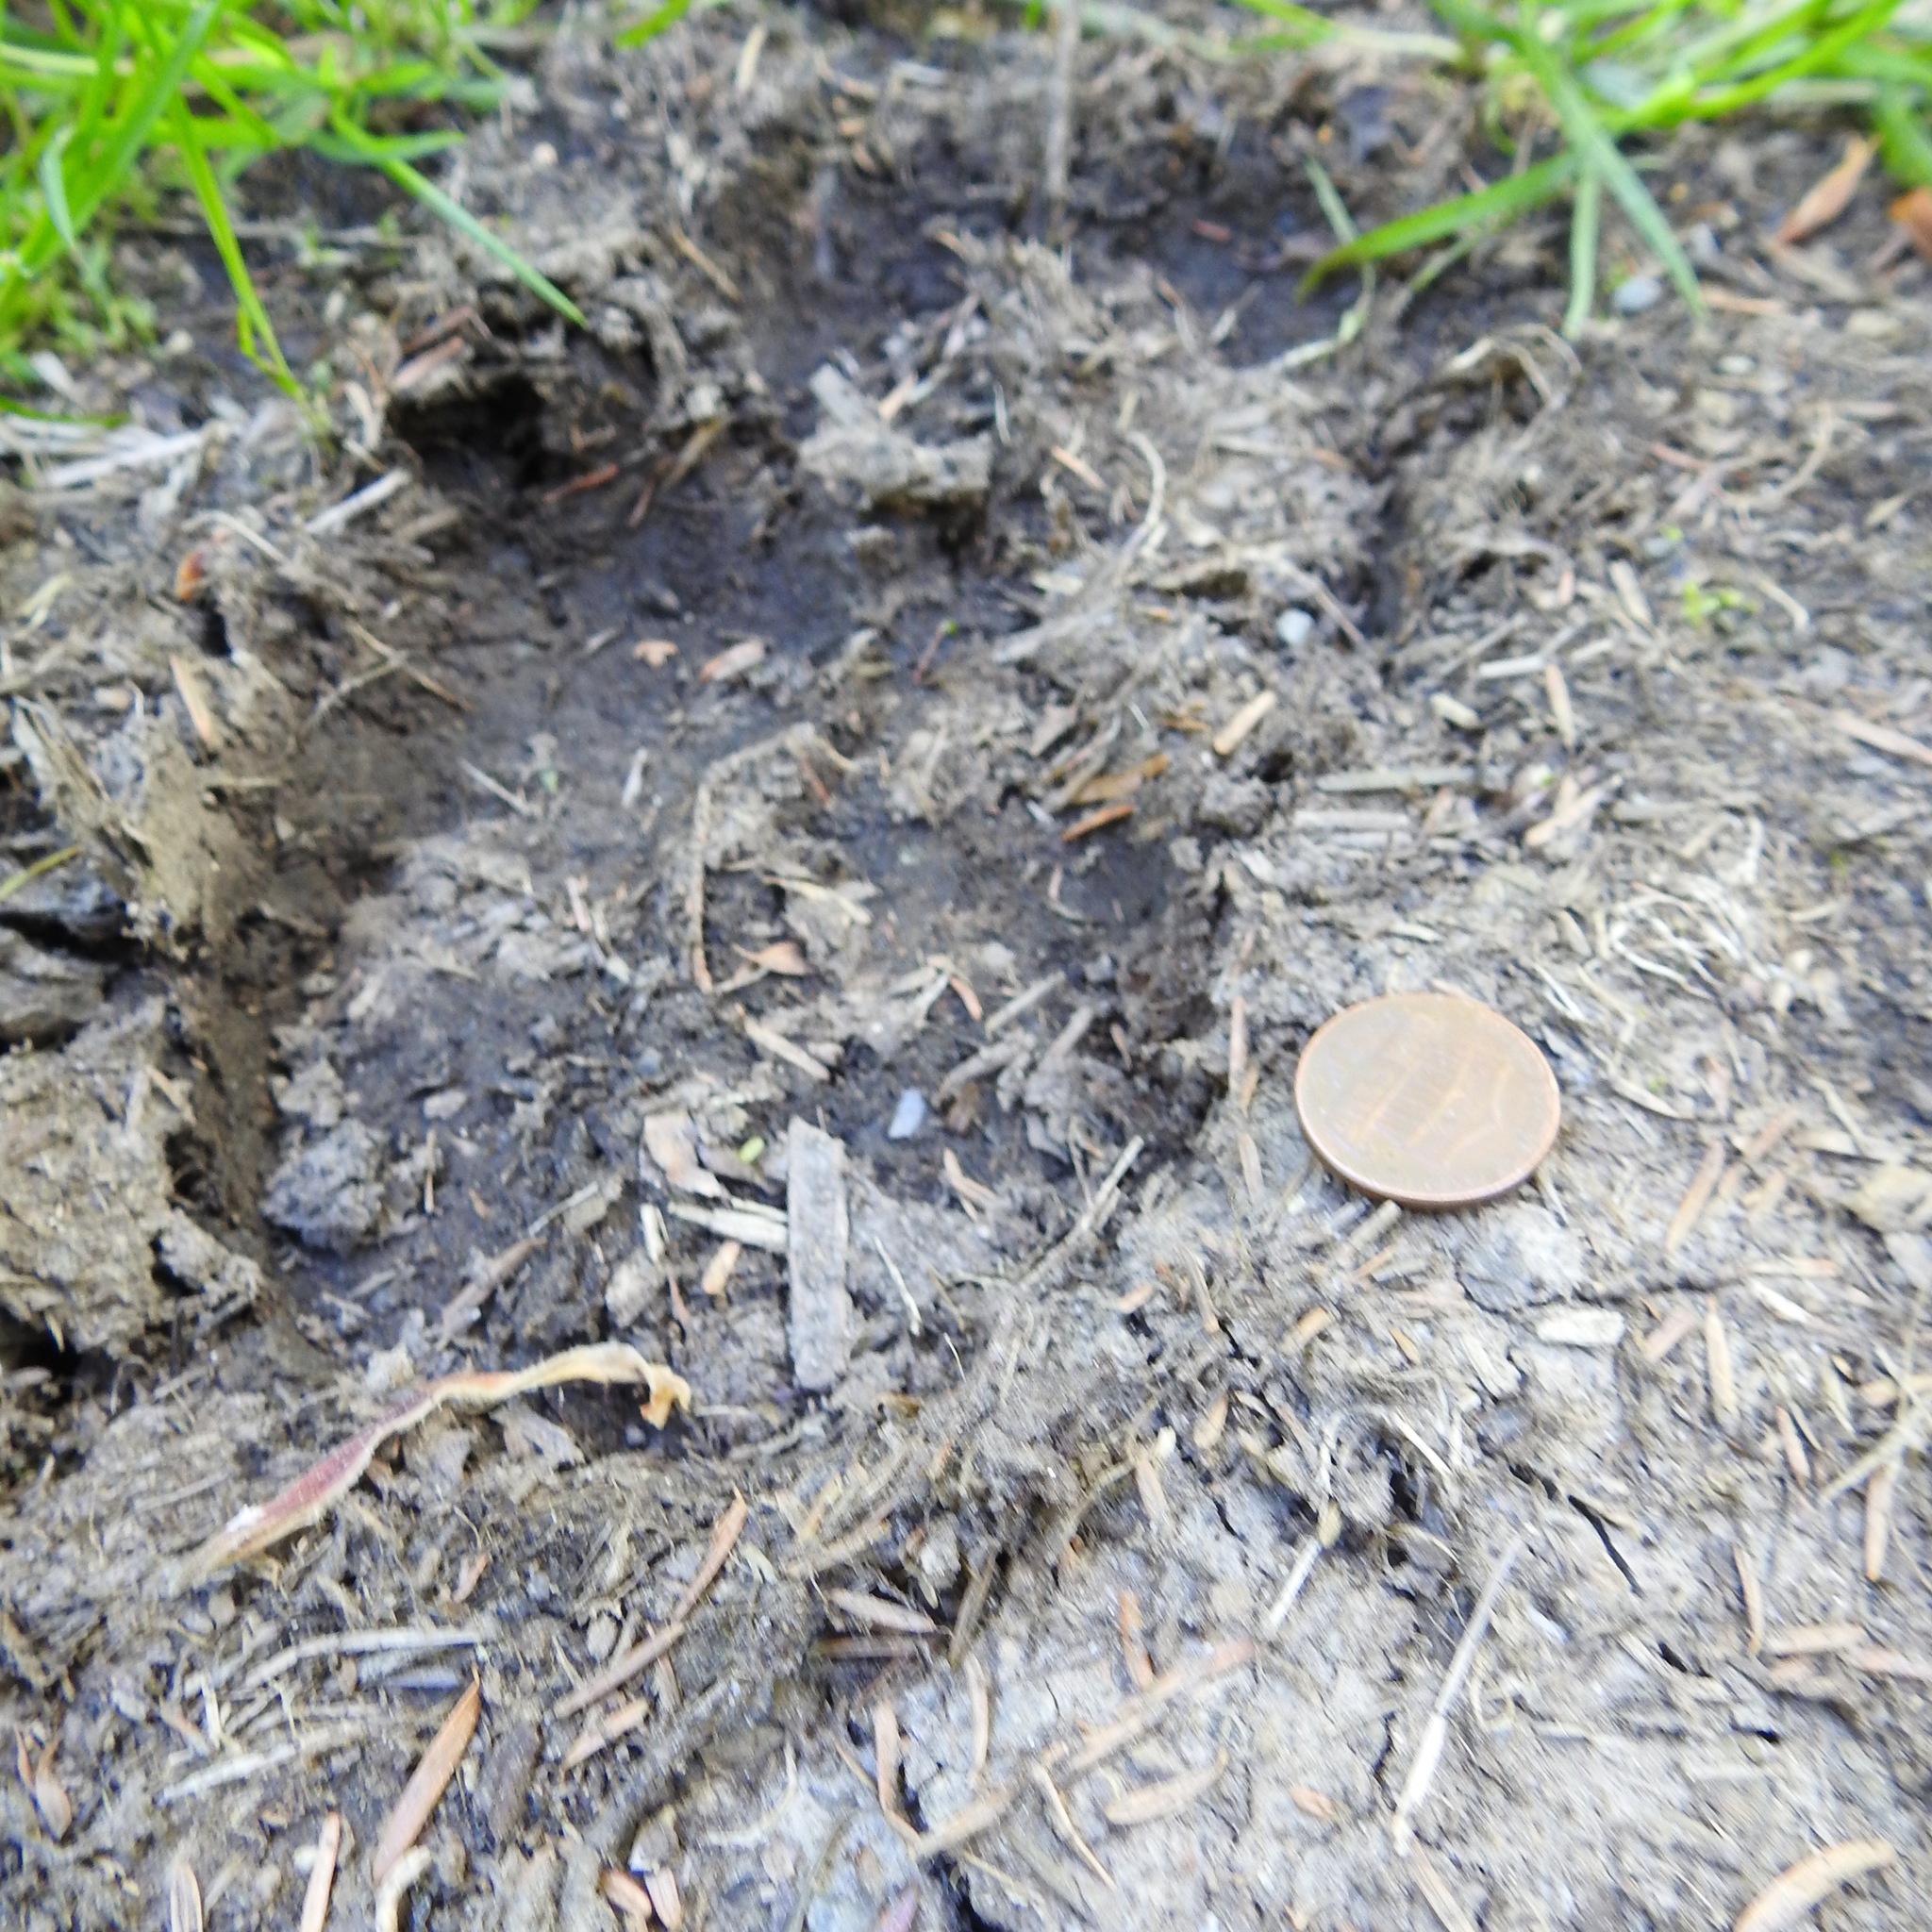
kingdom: Animalia
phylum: Chordata
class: Mammalia
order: Artiodactyla
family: Cervidae
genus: Cervus
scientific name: Cervus elaphus
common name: Red deer
